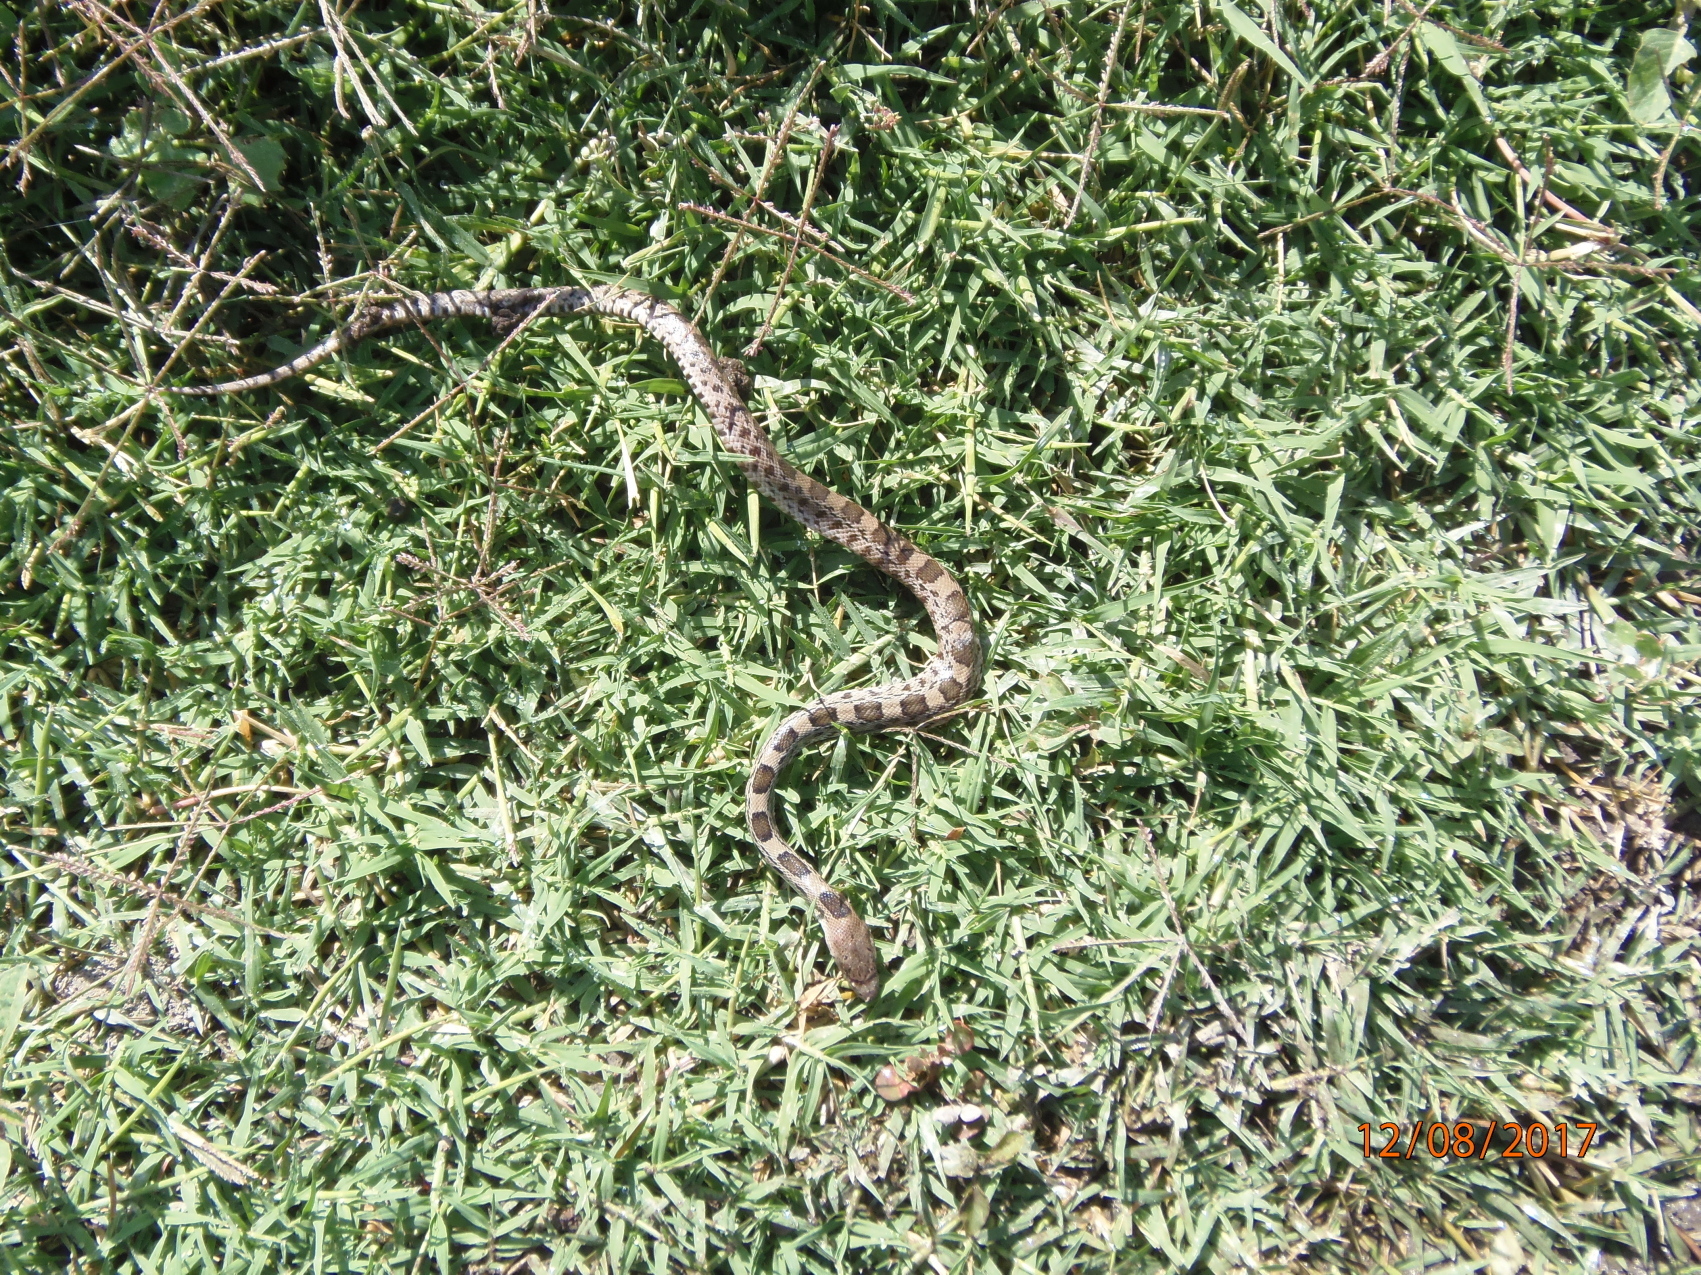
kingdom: Animalia
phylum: Chordata
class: Squamata
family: Colubridae
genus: Pituophis
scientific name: Pituophis deppei
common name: Mexican bull snake
